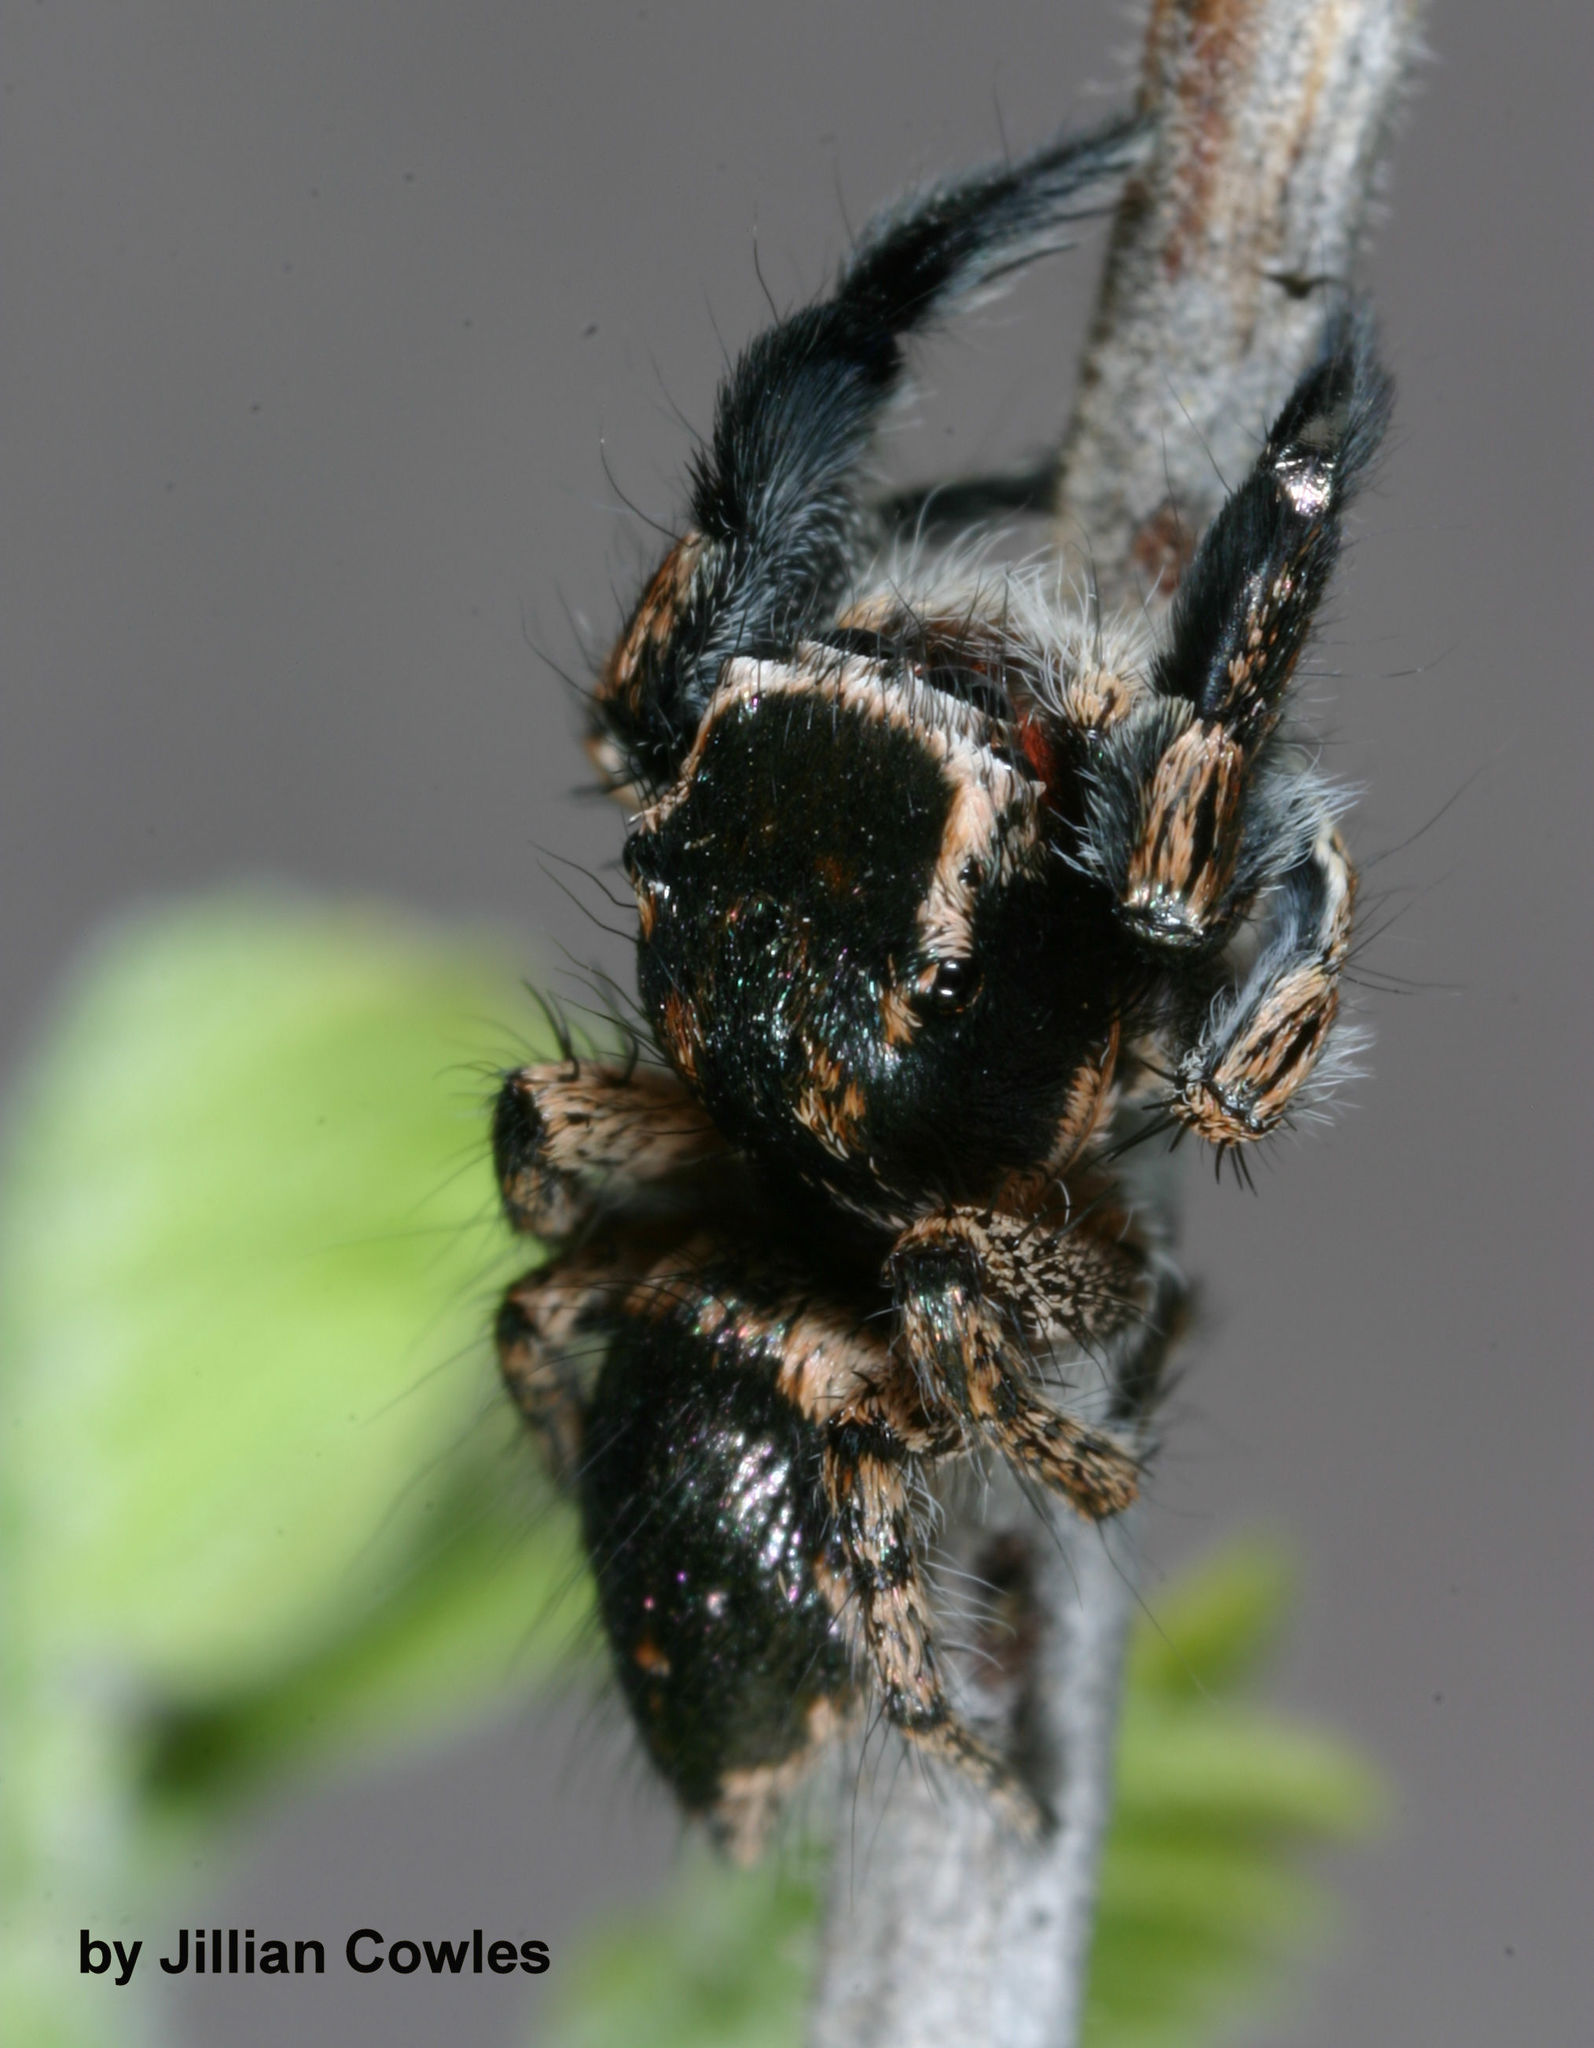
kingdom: Animalia
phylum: Arthropoda
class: Arachnida
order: Araneae
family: Salticidae
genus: Habronattus
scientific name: Habronattus hirsutus
